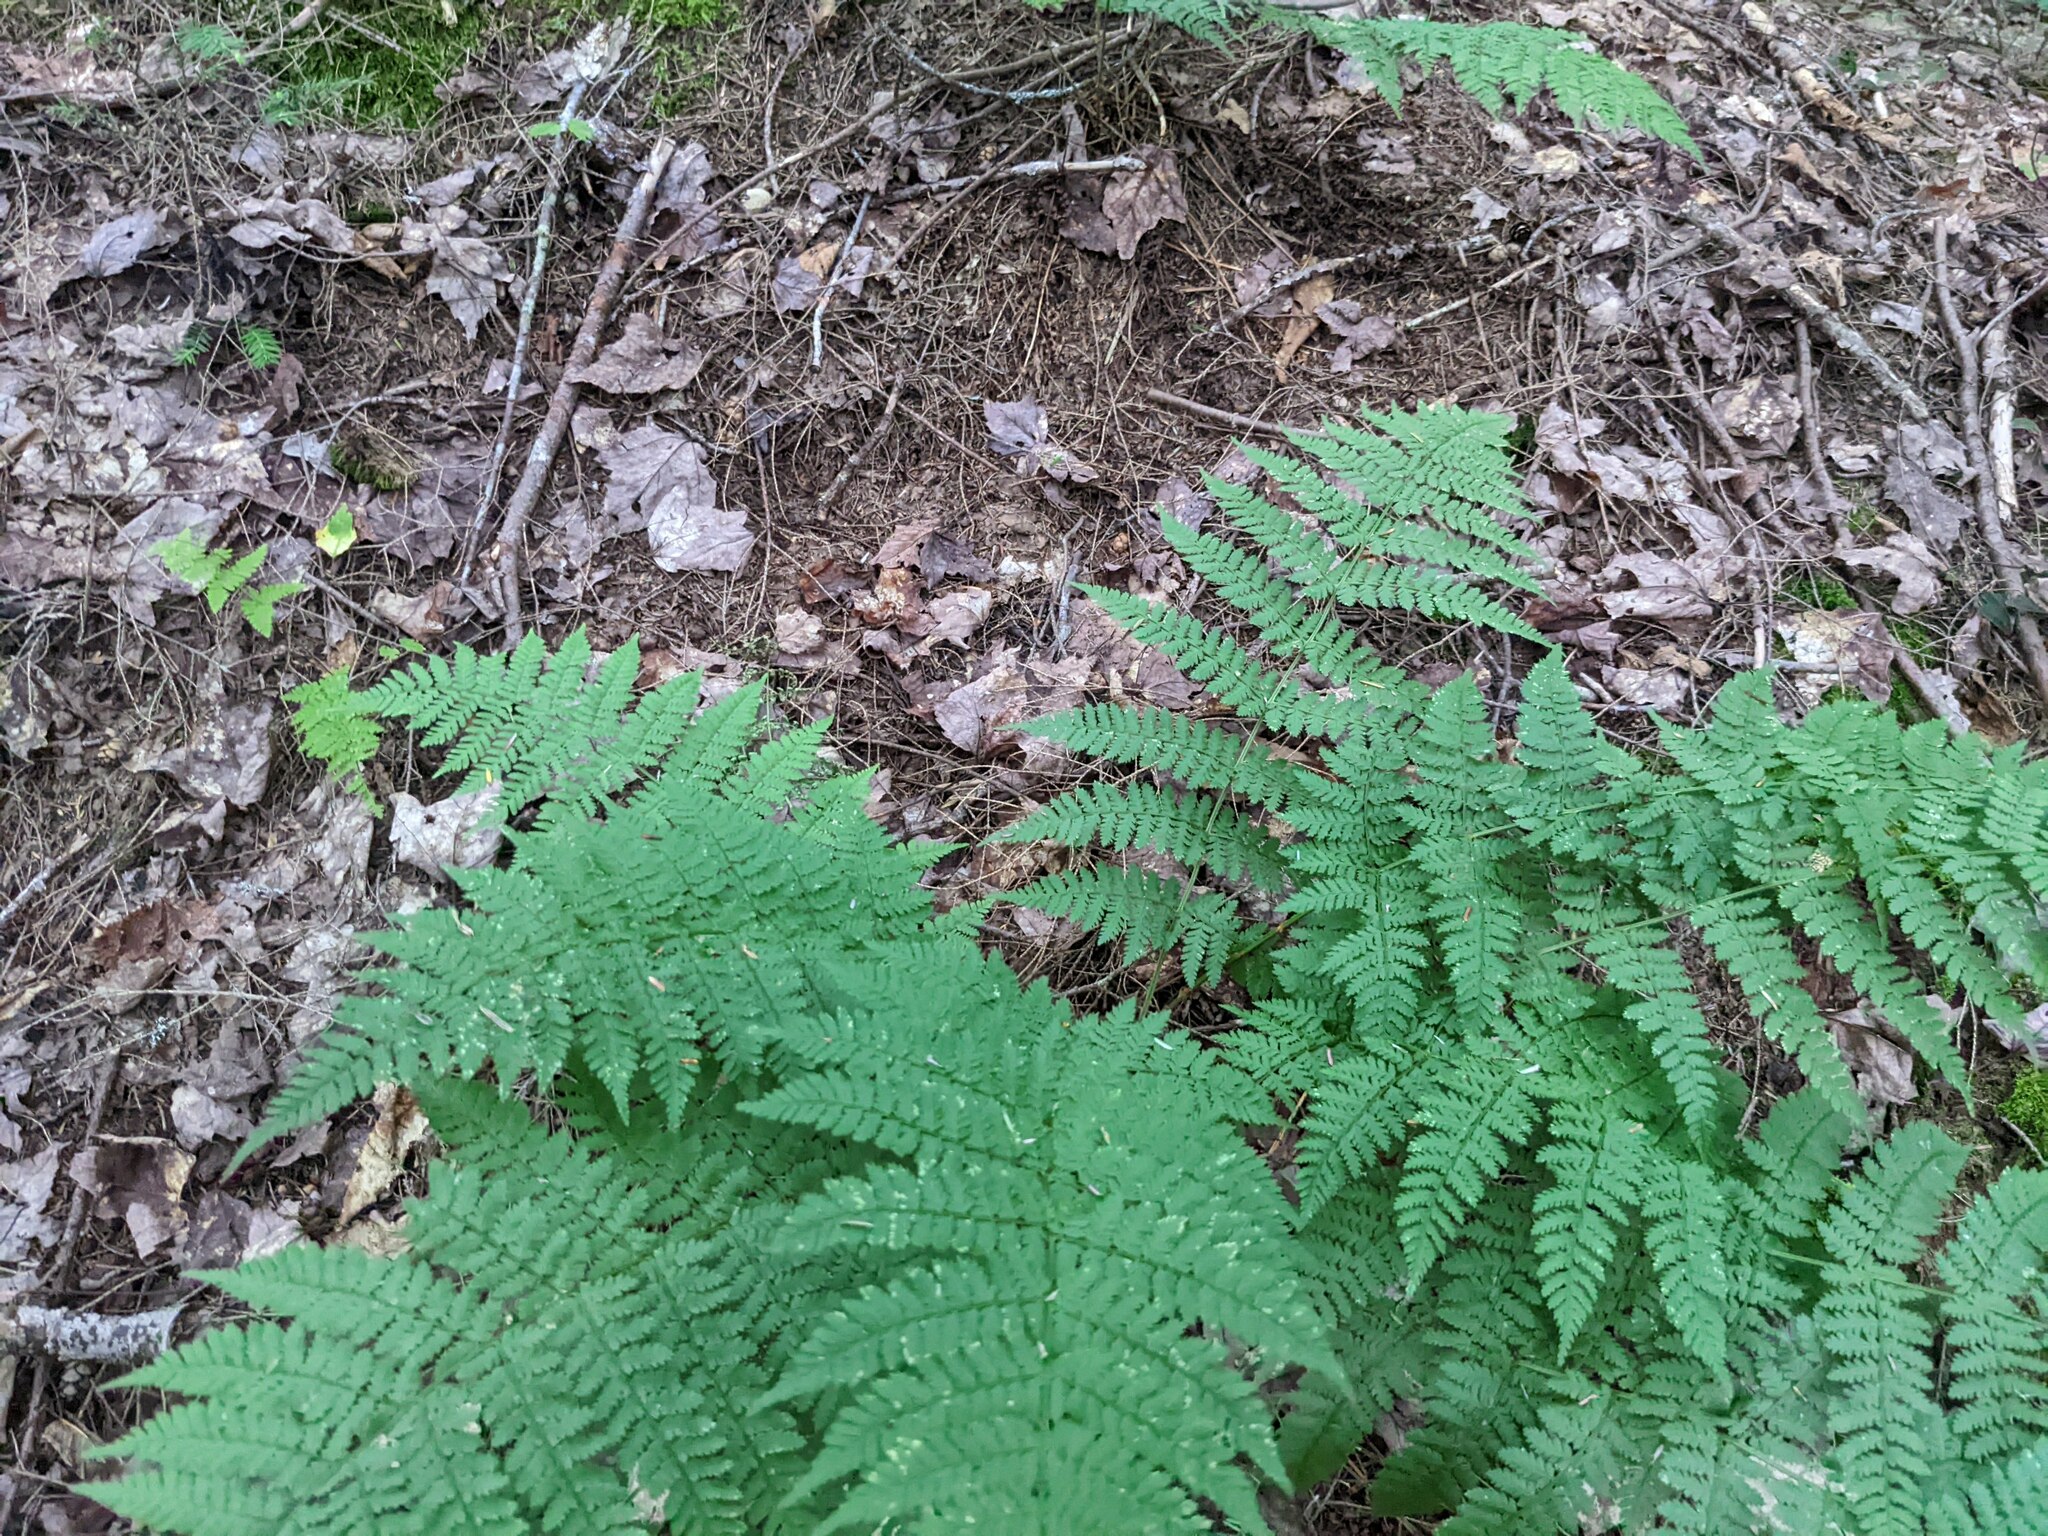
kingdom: Plantae
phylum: Tracheophyta
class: Polypodiopsida
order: Polypodiales
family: Dryopteridaceae
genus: Dryopteris
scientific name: Dryopteris intermedia
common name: Evergreen wood fern
